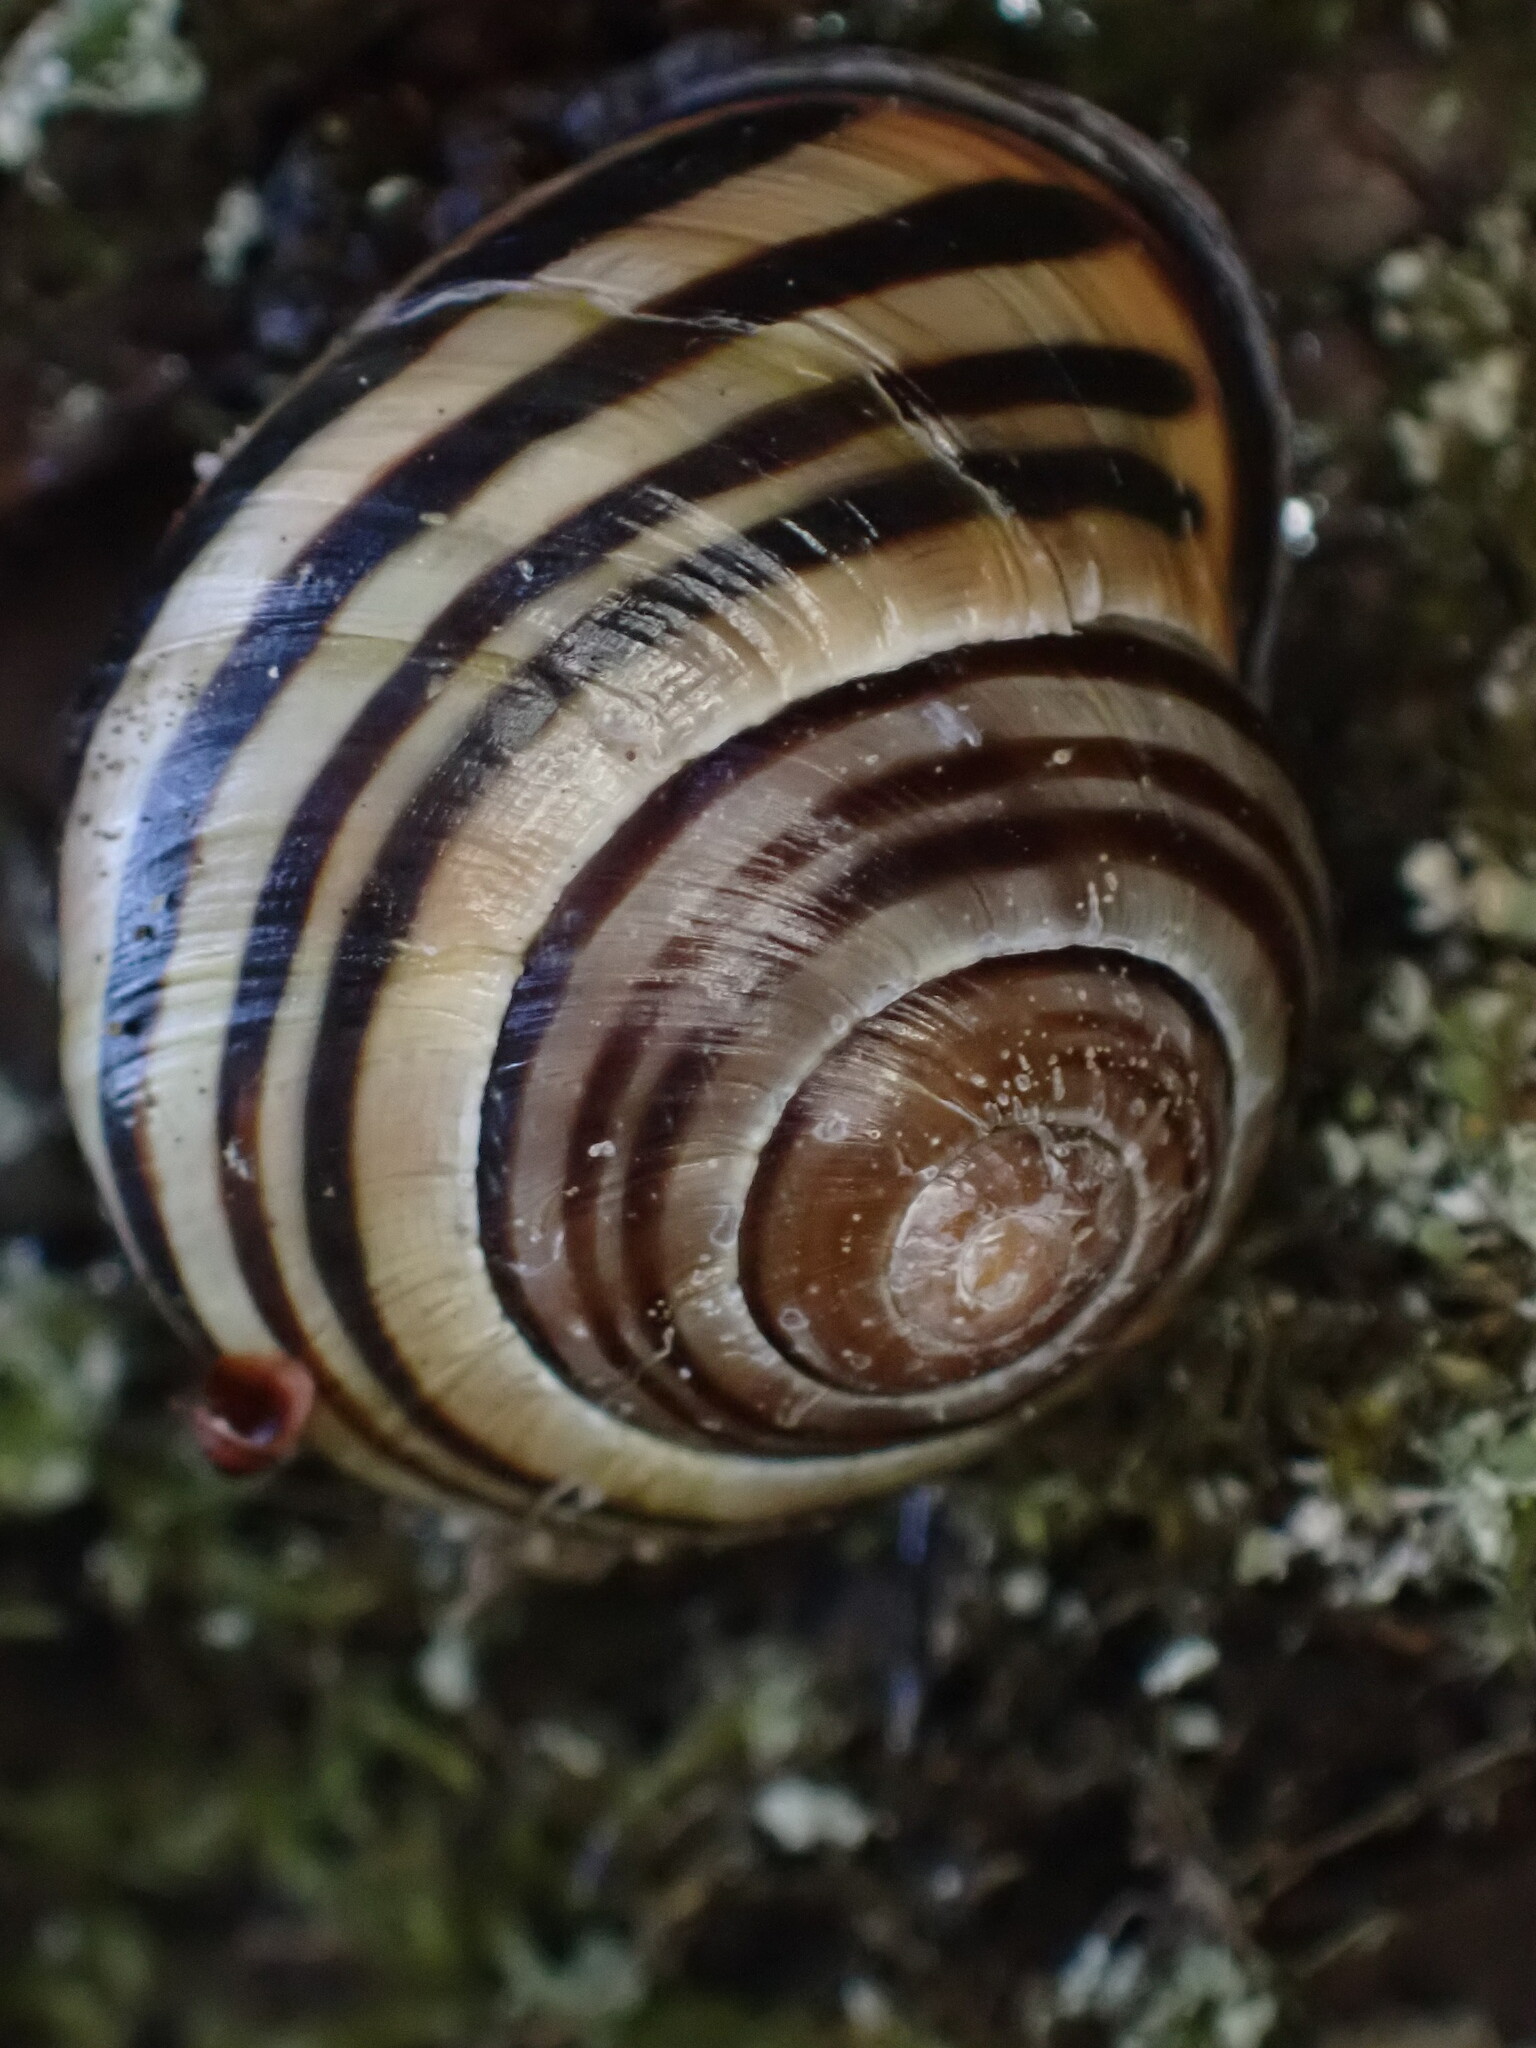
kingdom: Animalia
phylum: Mollusca
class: Gastropoda
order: Stylommatophora
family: Helicidae
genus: Cepaea
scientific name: Cepaea nemoralis
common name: Grovesnail
